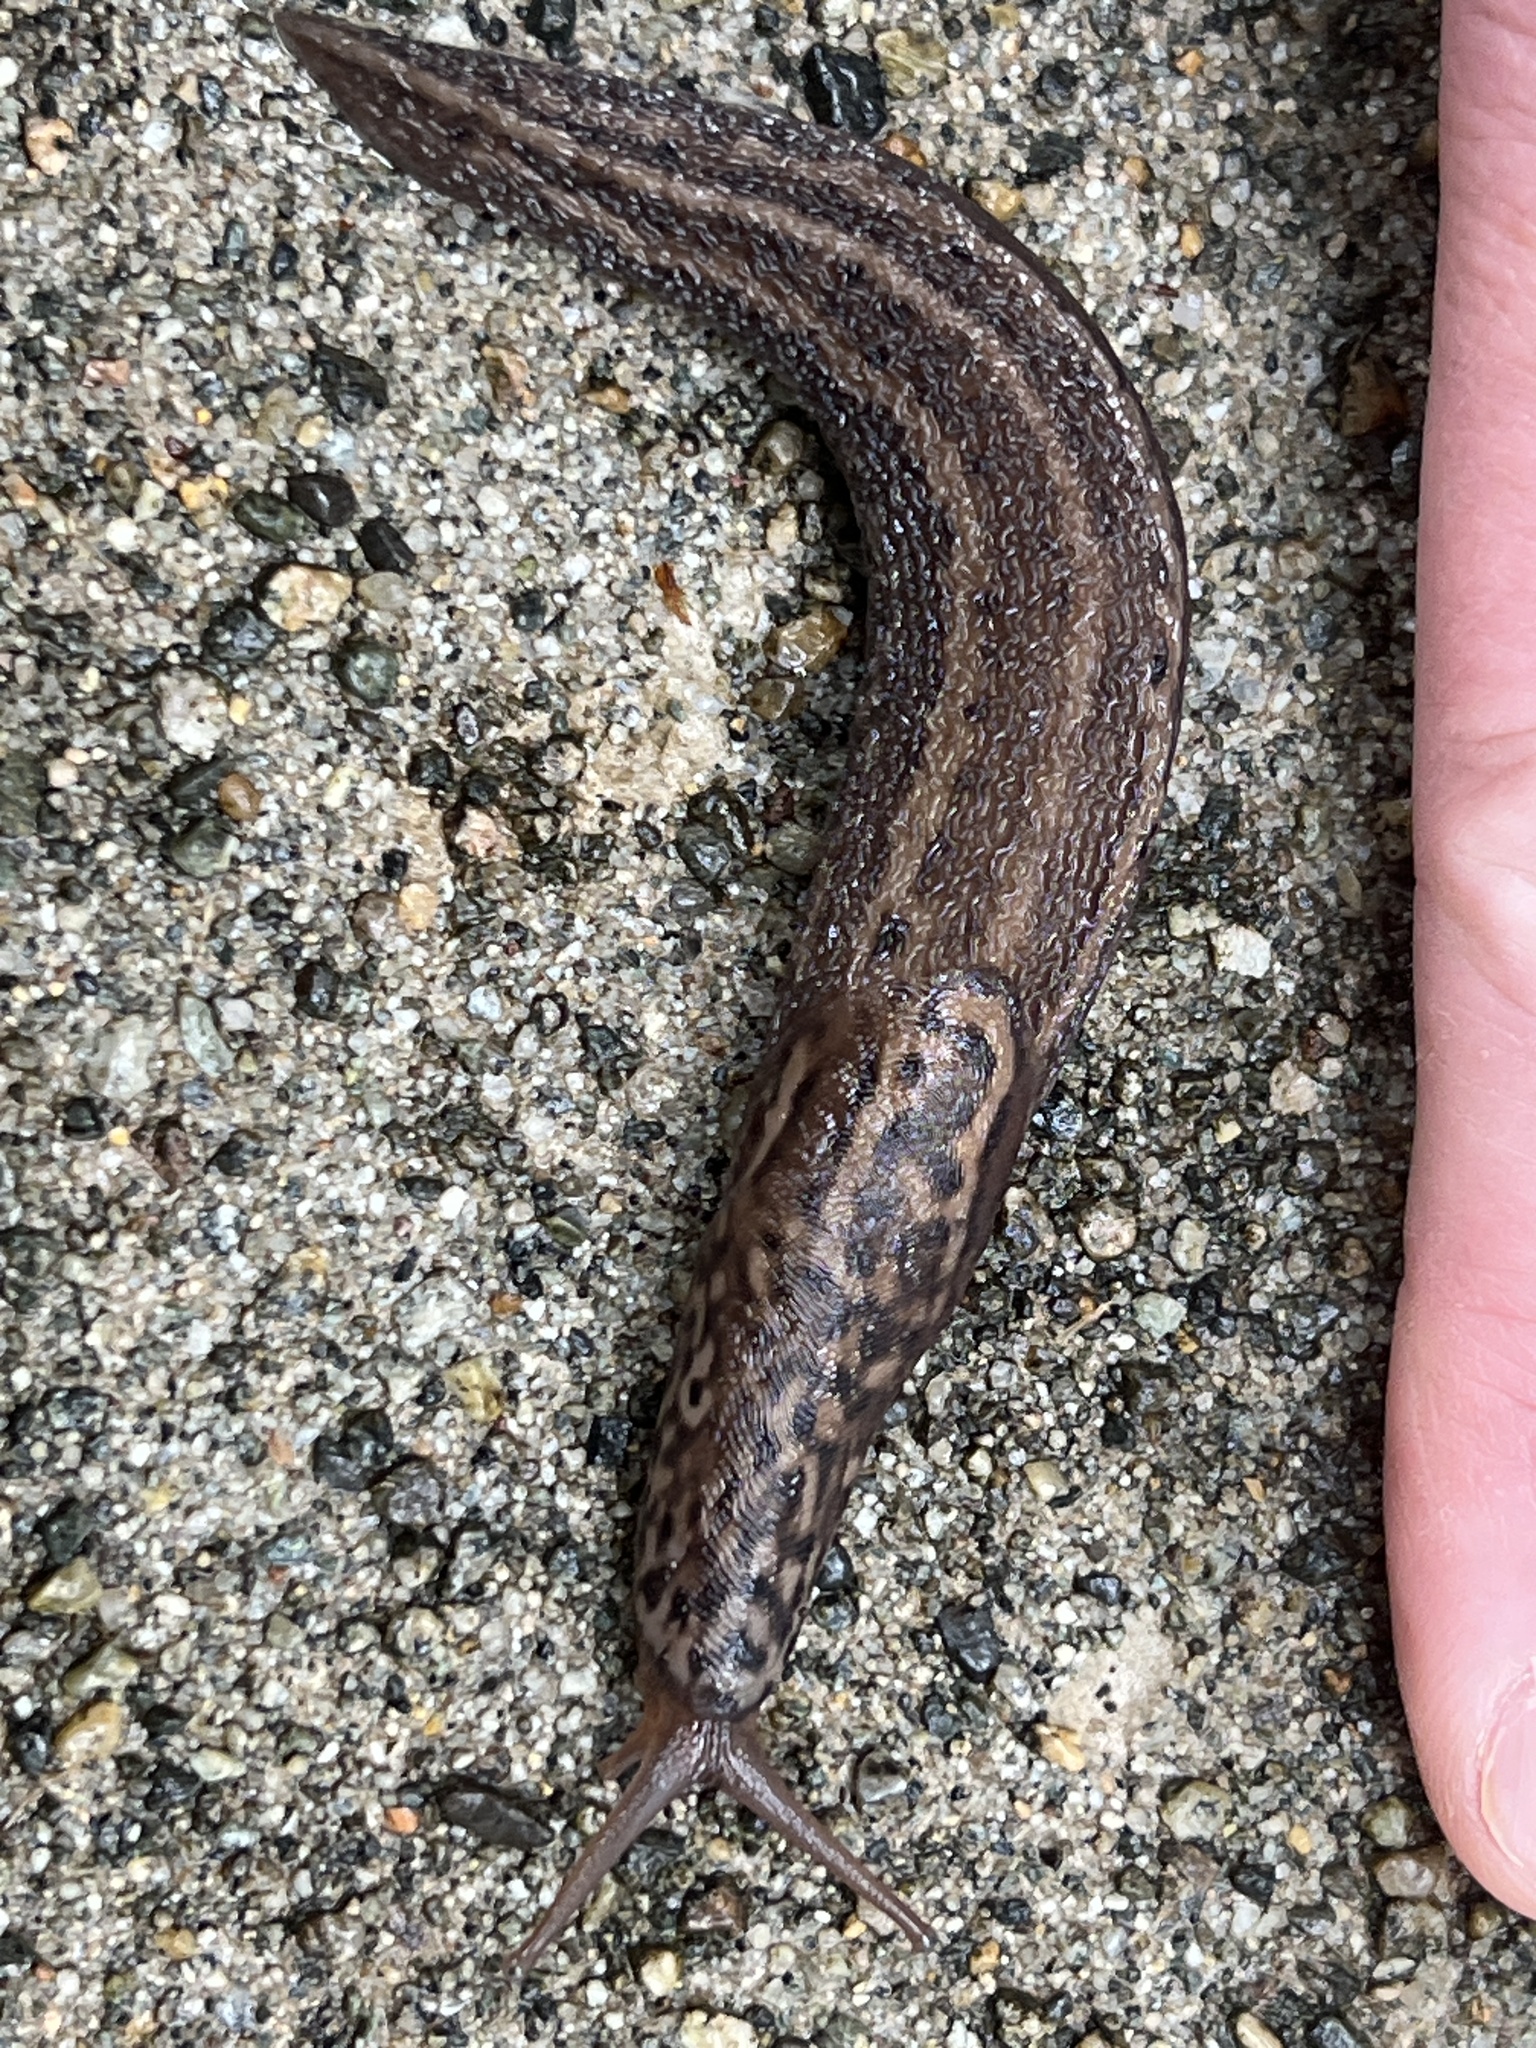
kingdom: Animalia
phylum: Mollusca
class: Gastropoda
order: Stylommatophora
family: Limacidae
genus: Limax
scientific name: Limax maximus
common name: Great grey slug
